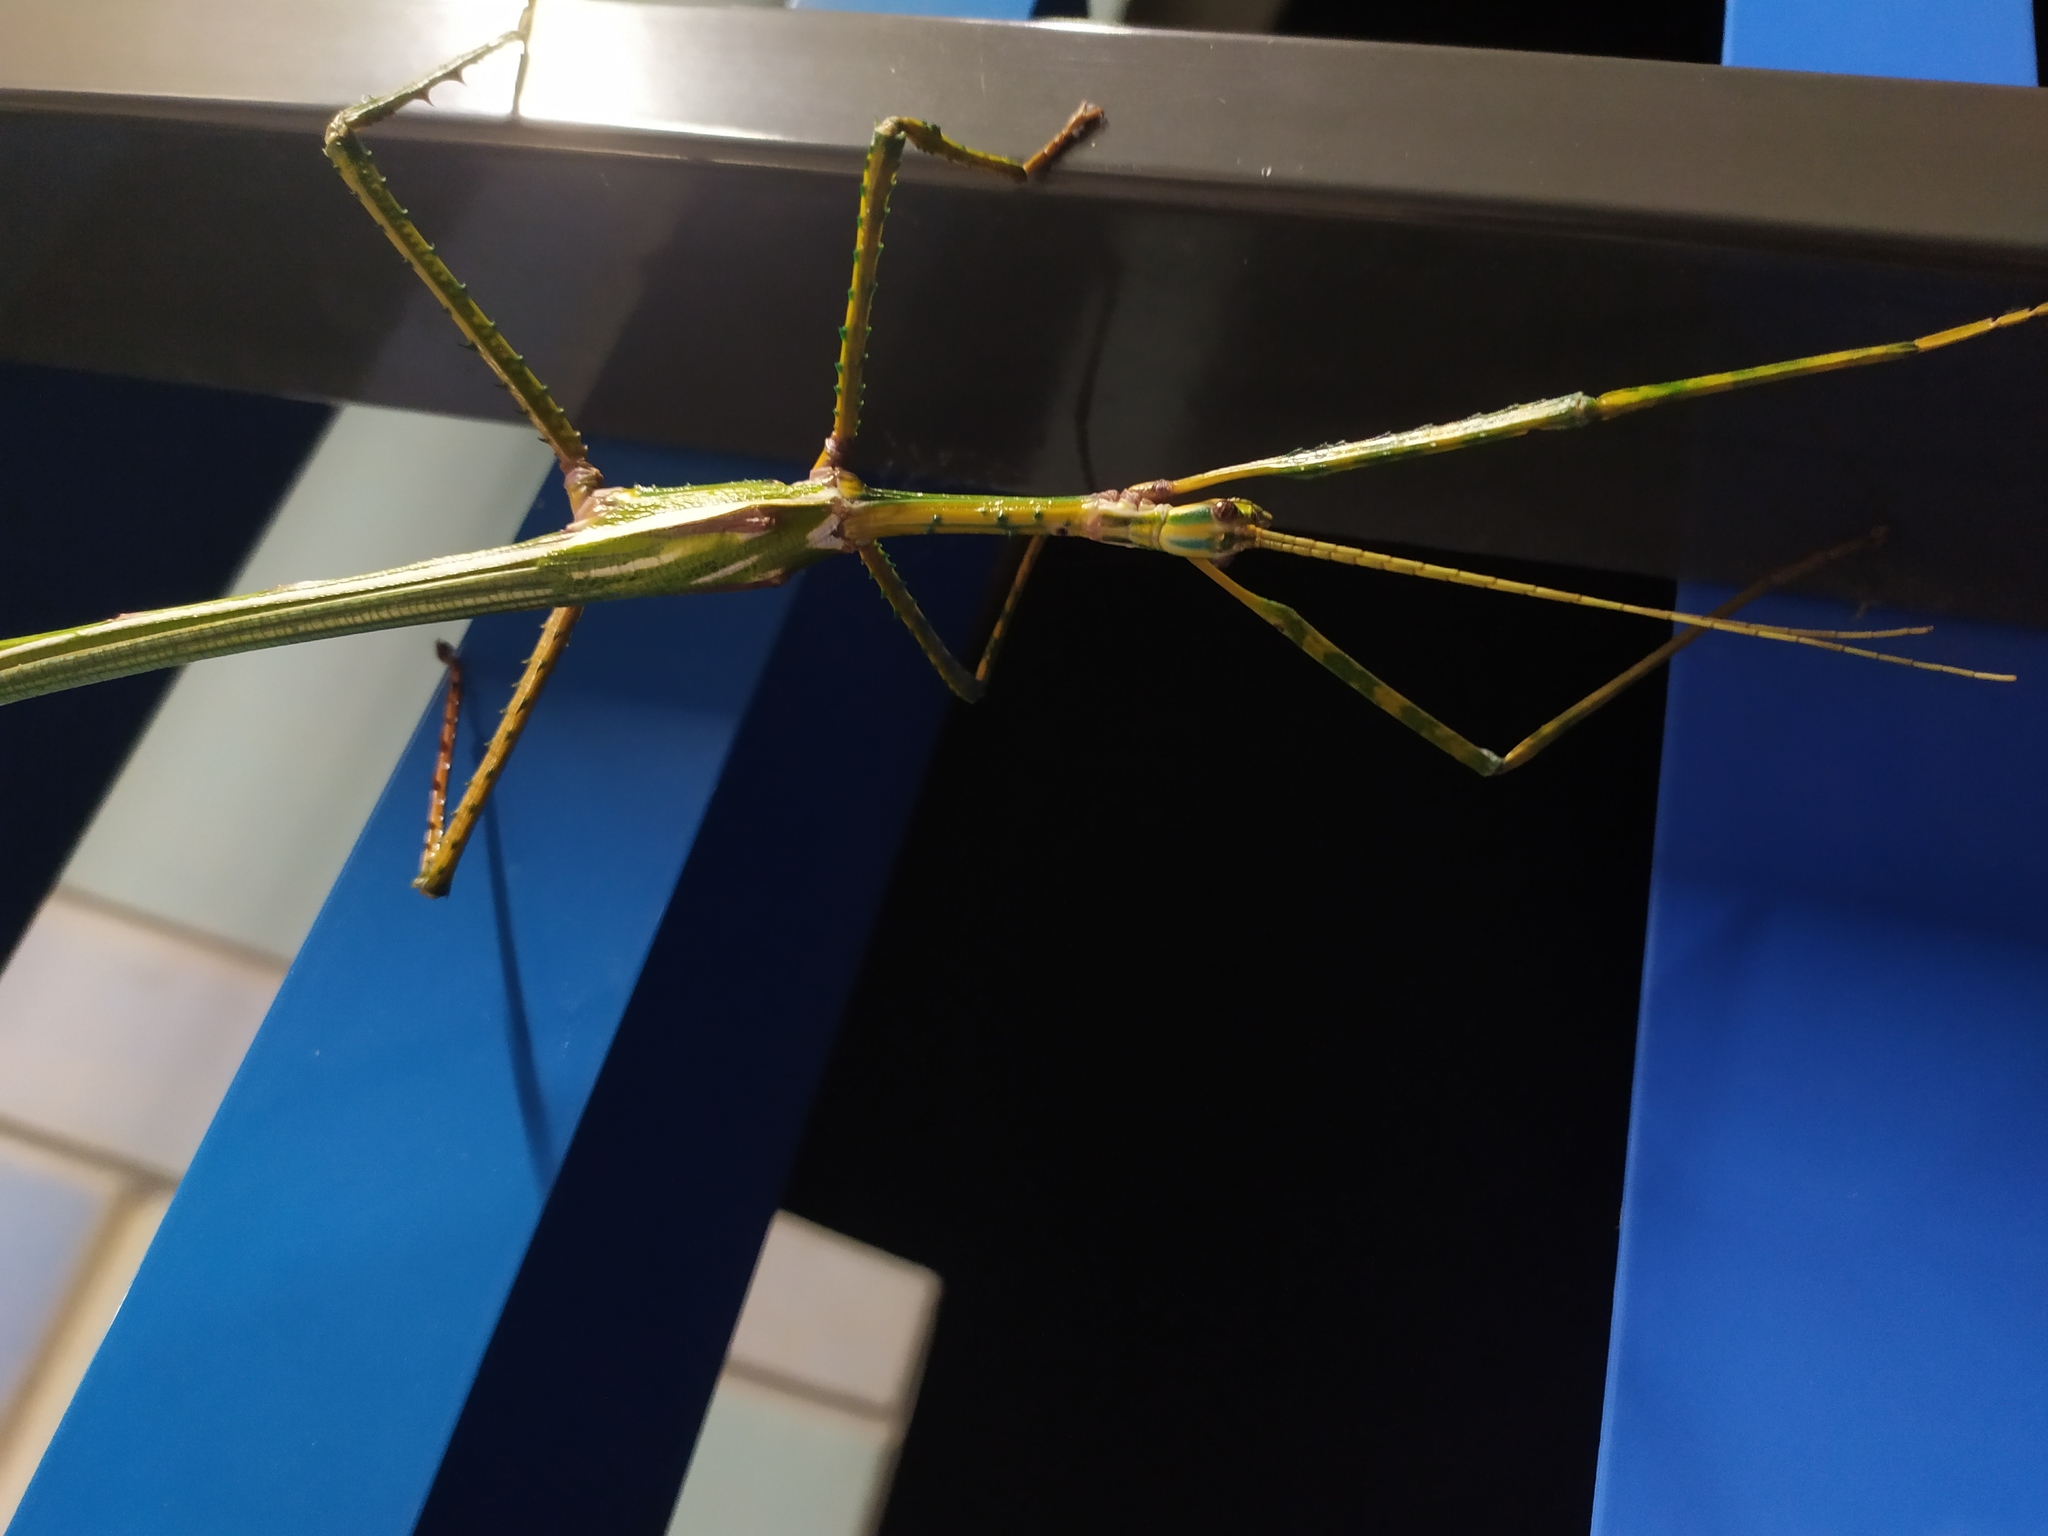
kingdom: Animalia
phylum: Arthropoda
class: Insecta
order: Phasmida
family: Phasmatidae
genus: Eurycnema
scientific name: Eurycnema goliath
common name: Goliath stick insect
